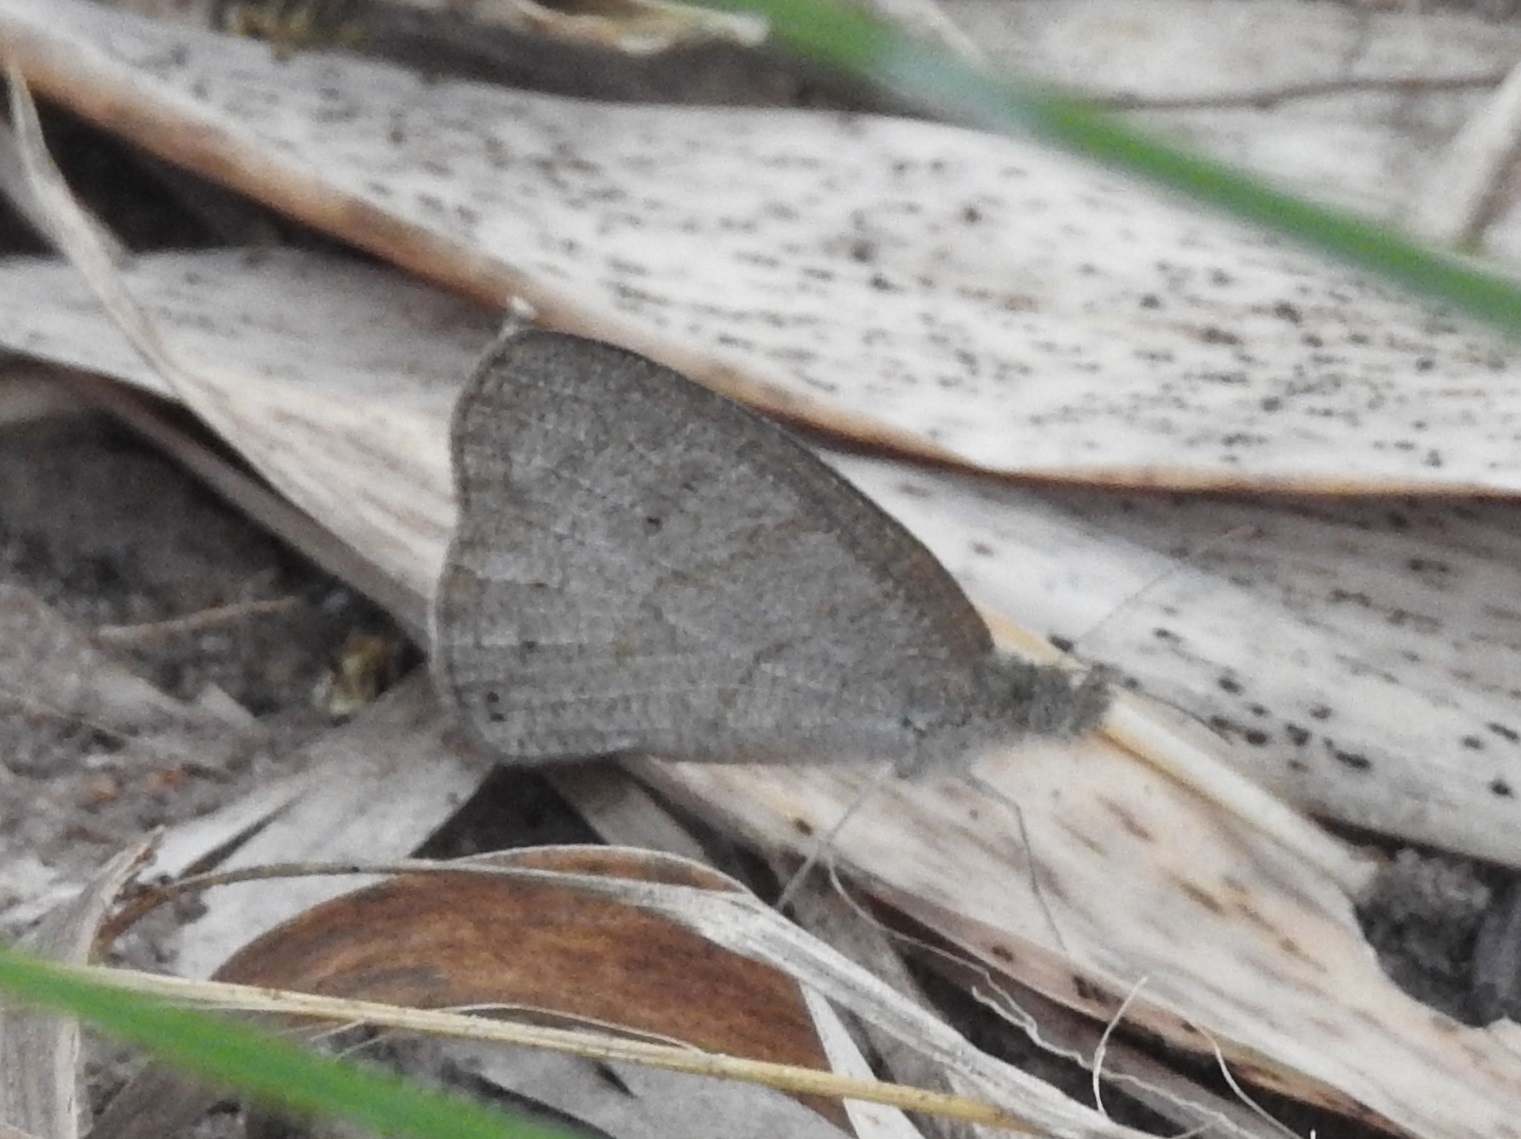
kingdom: Animalia
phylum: Arthropoda
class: Insecta
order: Lepidoptera
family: Nymphalidae
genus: Ypthima
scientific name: Ypthima baldus
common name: Common five-ring
